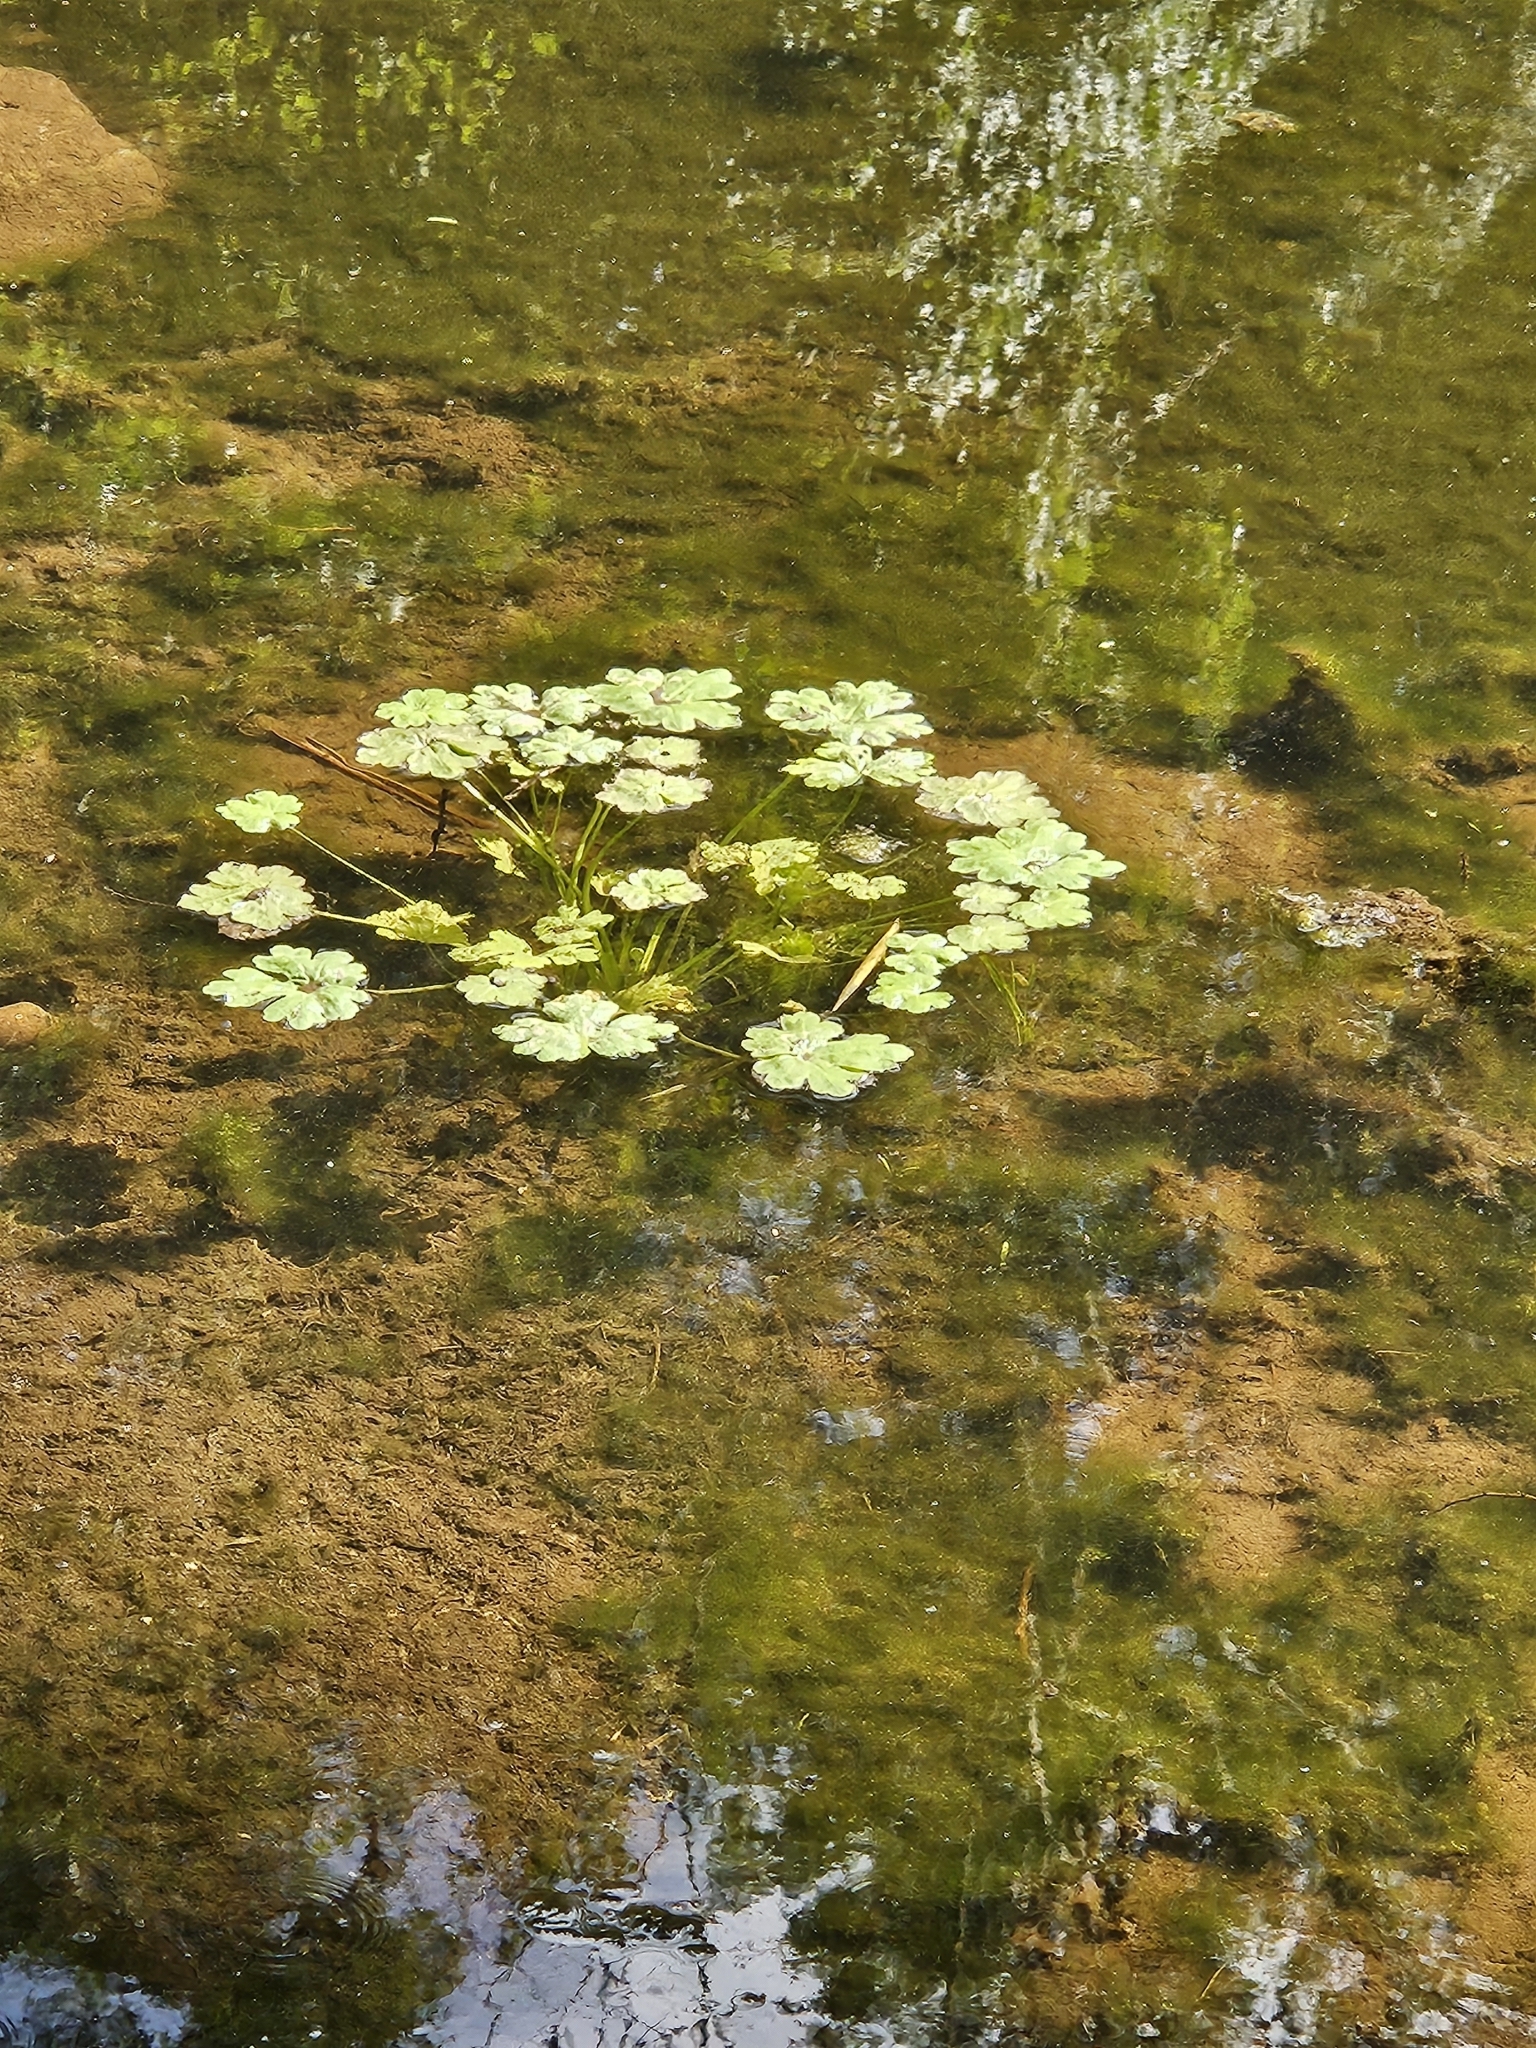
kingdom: Plantae
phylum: Tracheophyta
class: Magnoliopsida
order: Ranunculales
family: Ranunculaceae
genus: Ranunculus
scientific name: Ranunculus sceleratus
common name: Celery-leaved buttercup
